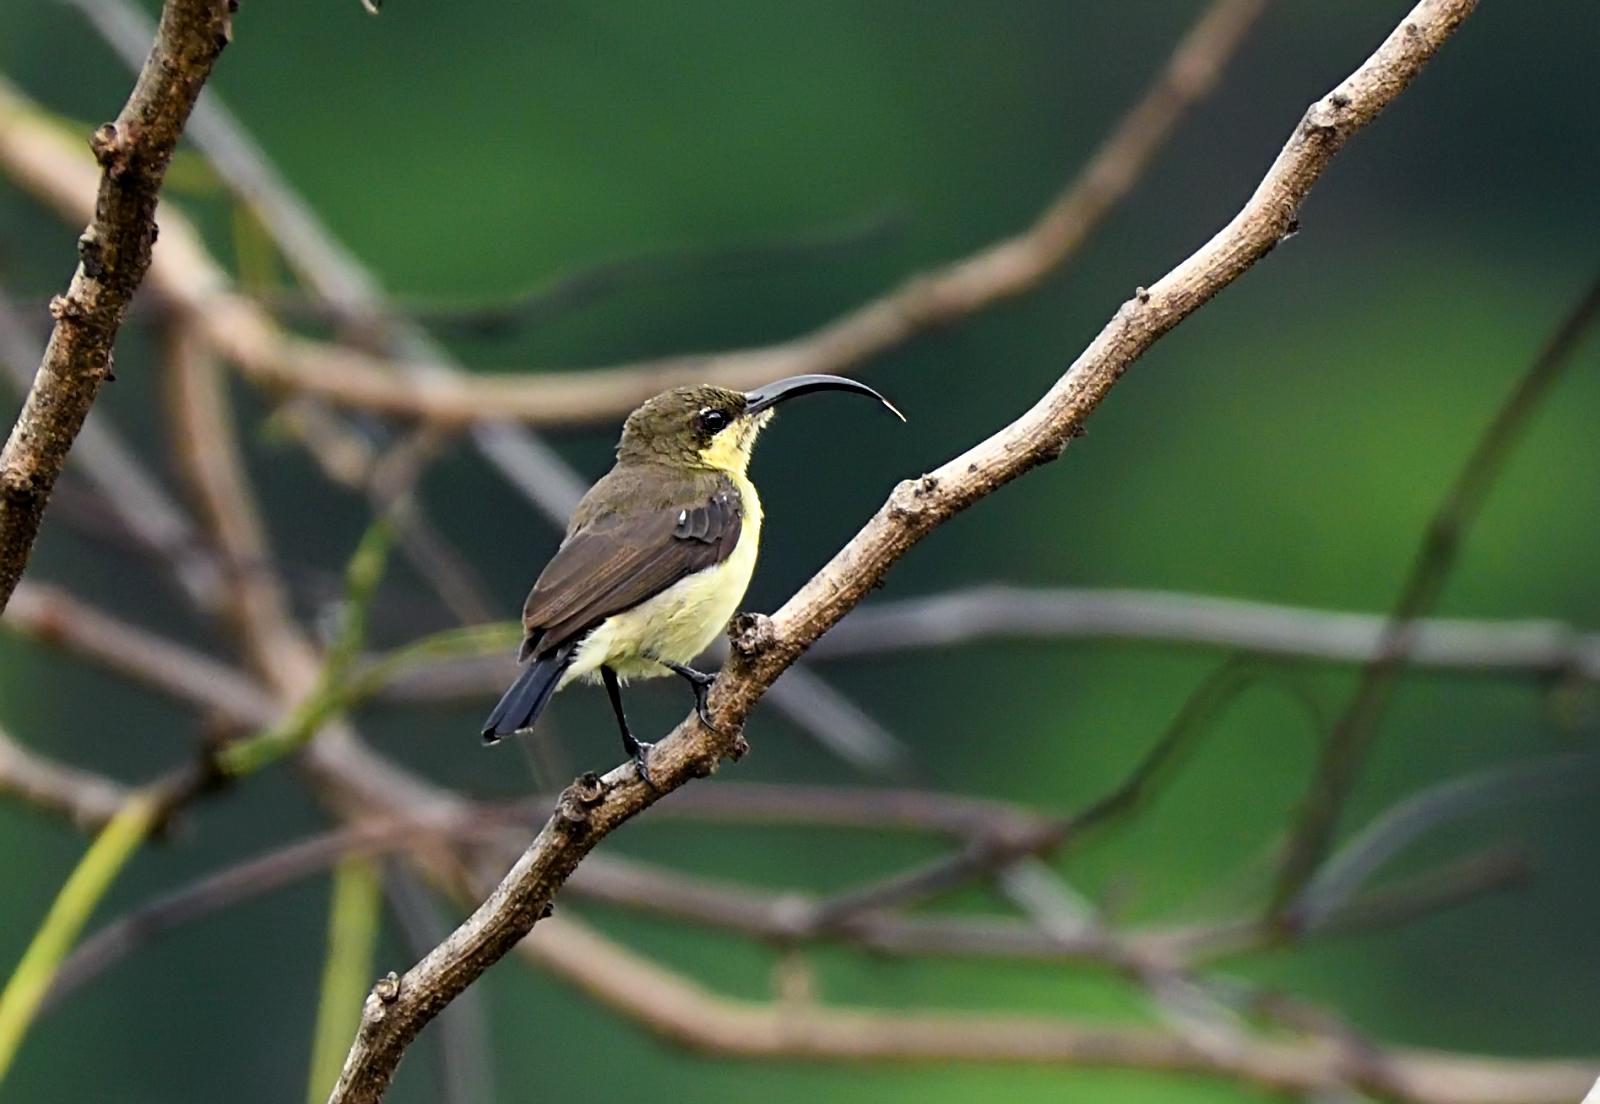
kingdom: Animalia
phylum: Chordata
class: Aves
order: Passeriformes
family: Nectariniidae
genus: Cinnyris
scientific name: Cinnyris lotenius
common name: Loten's sunbird
